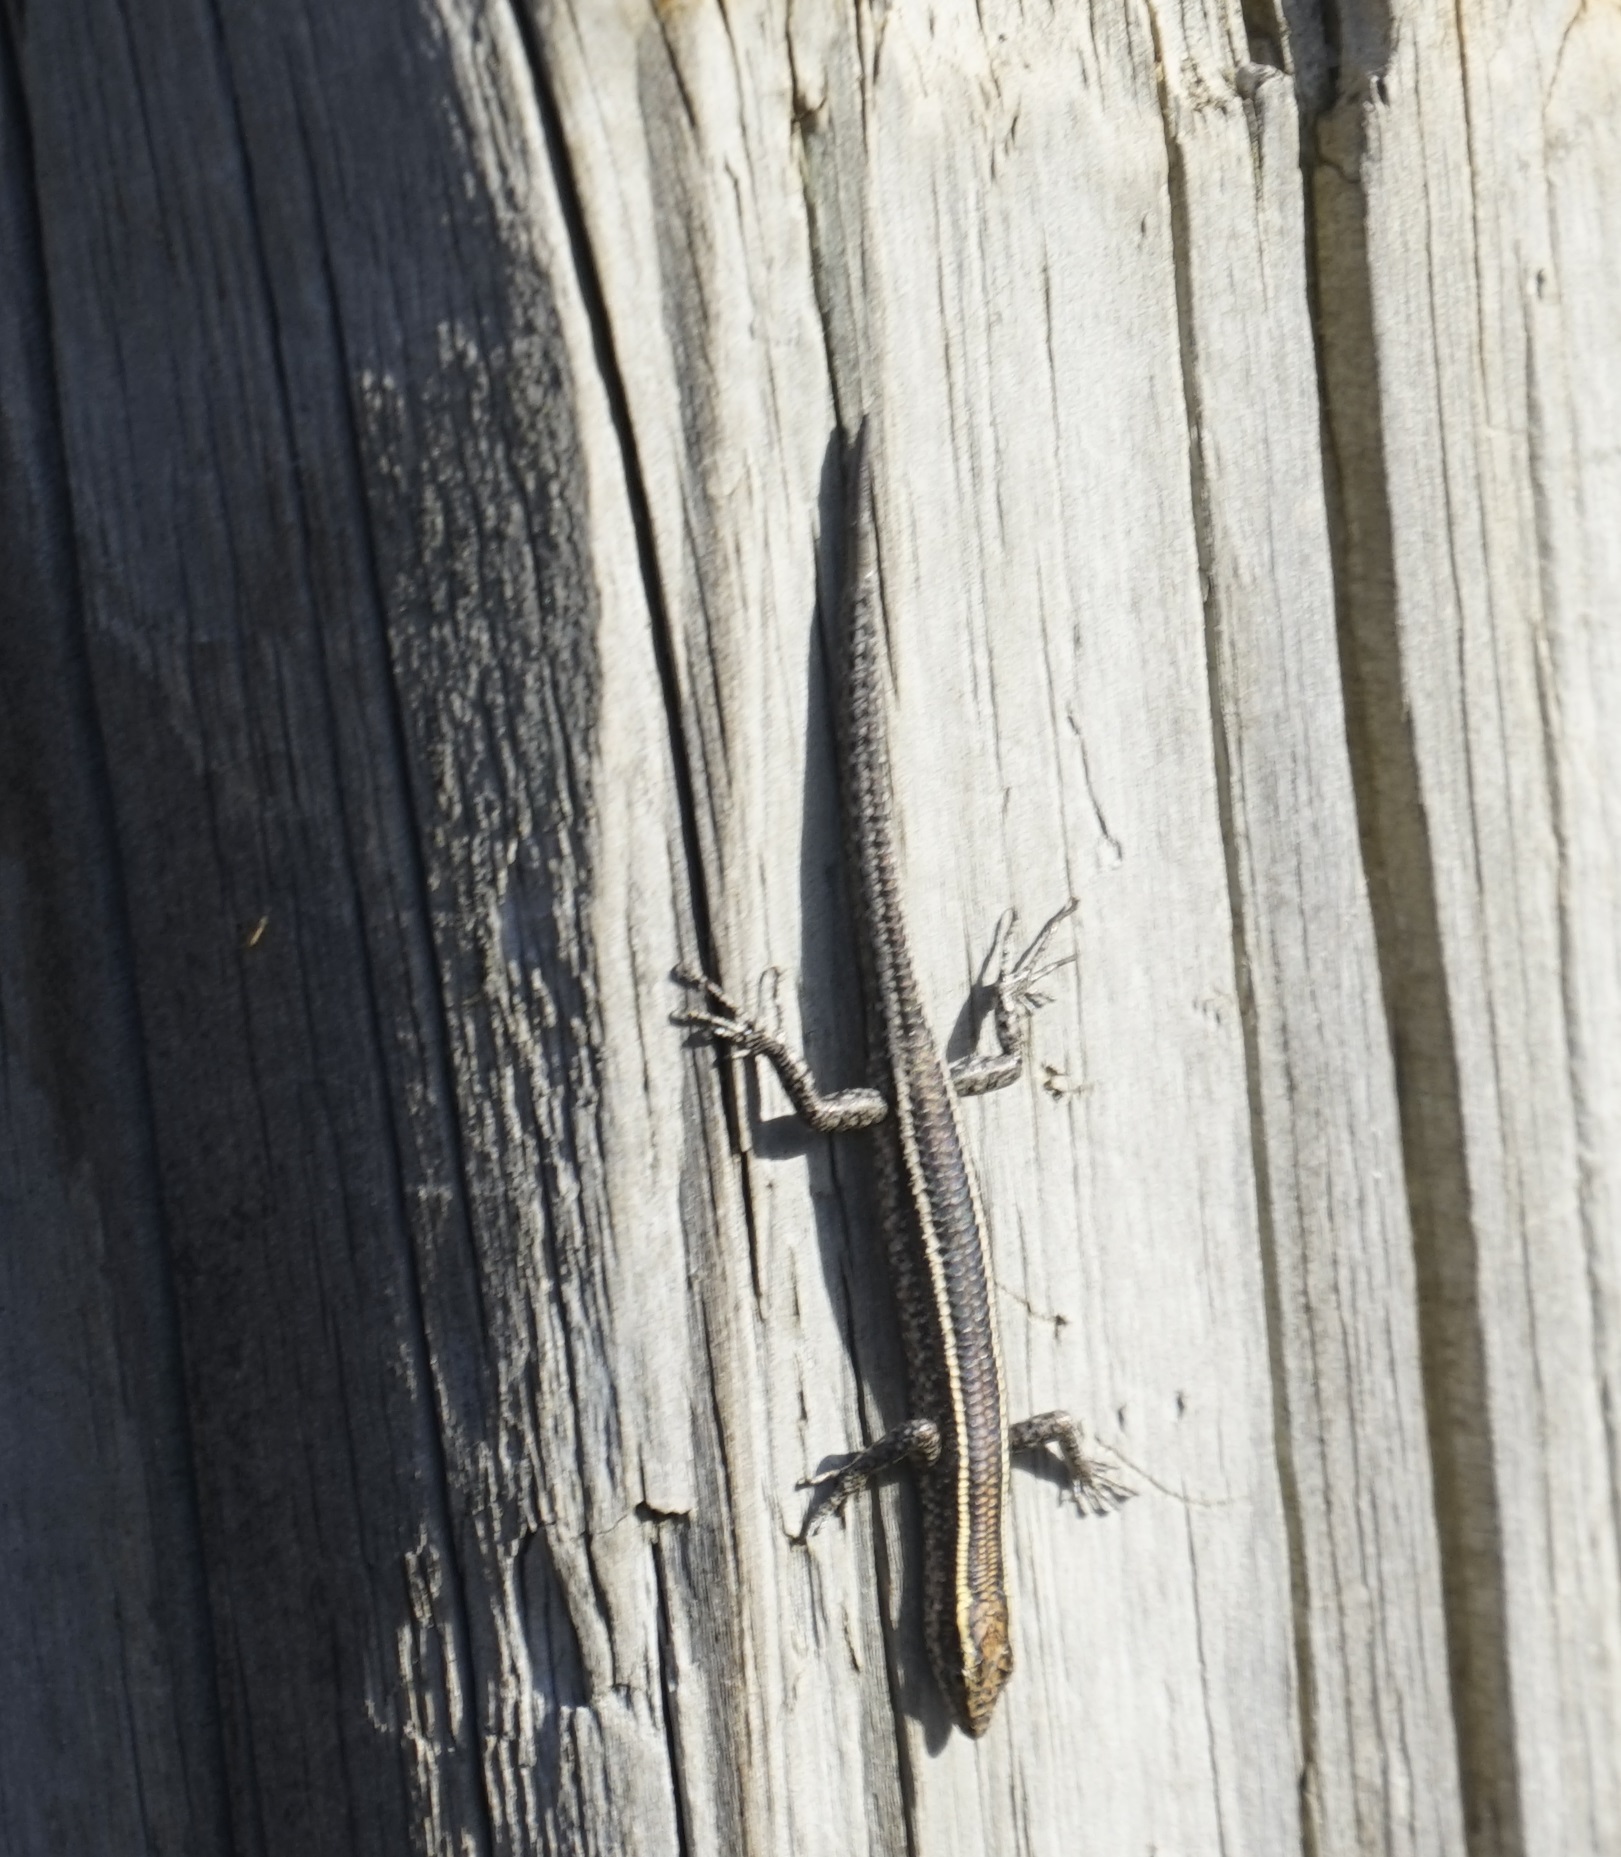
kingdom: Animalia
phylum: Chordata
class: Squamata
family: Scincidae
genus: Cryptoblepharus
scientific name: Cryptoblepharus pulcher
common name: Elegant snake-eyed skink
